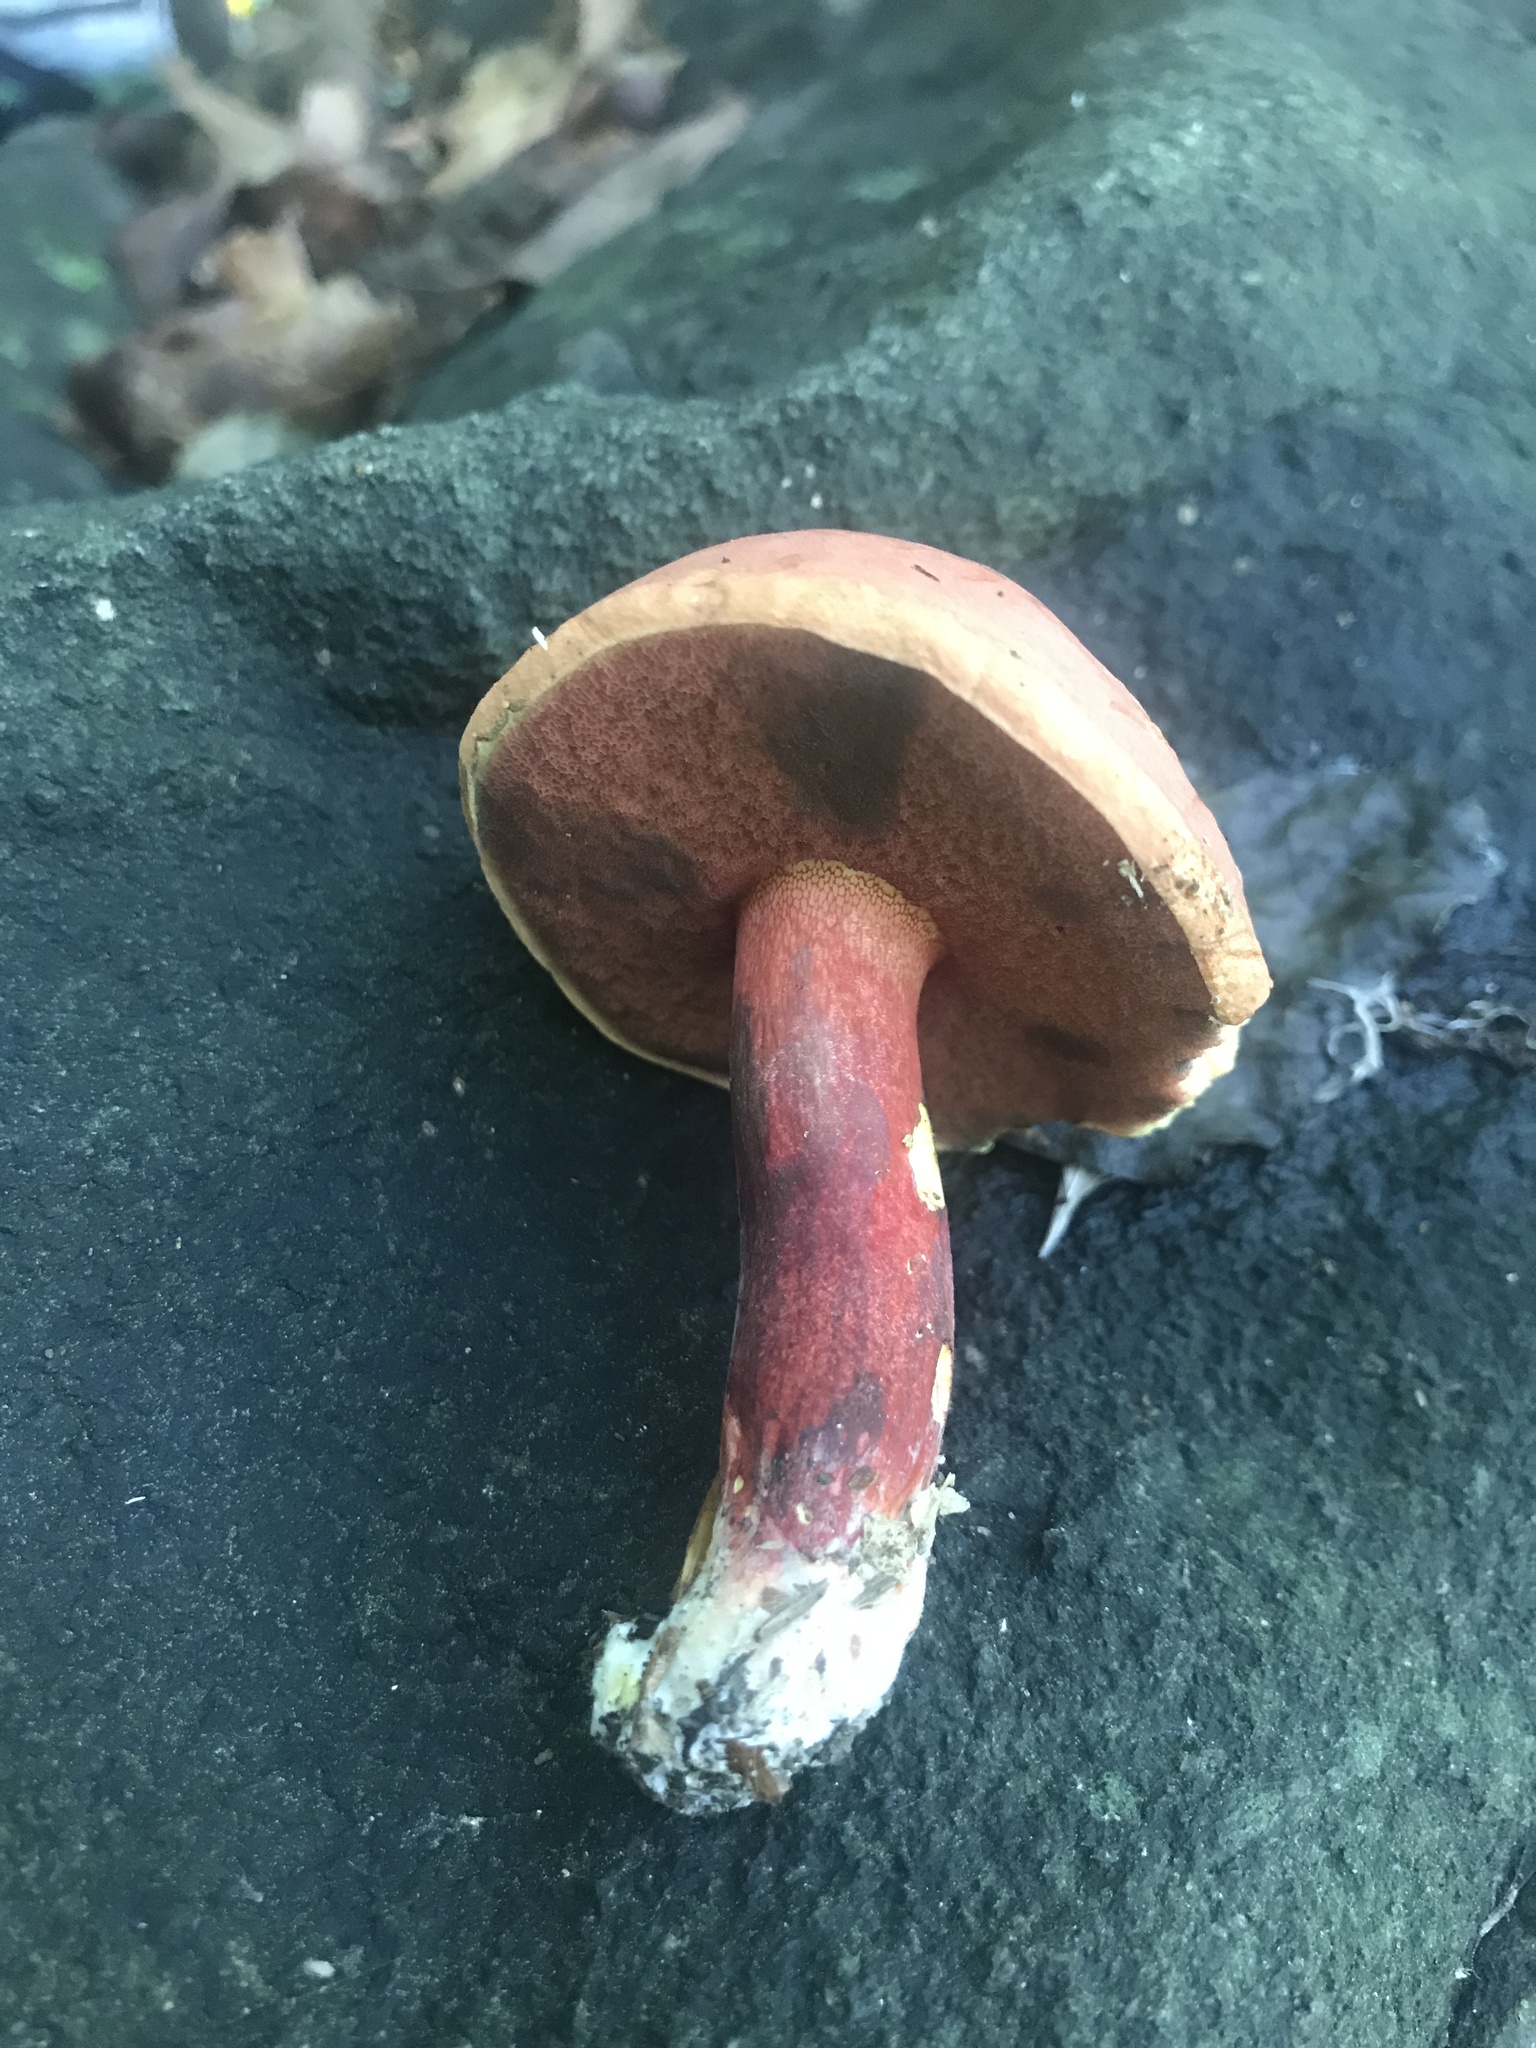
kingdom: Fungi
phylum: Basidiomycota
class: Agaricomycetes
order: Boletales
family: Boletaceae
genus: Boletus
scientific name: Boletus carminiporus
